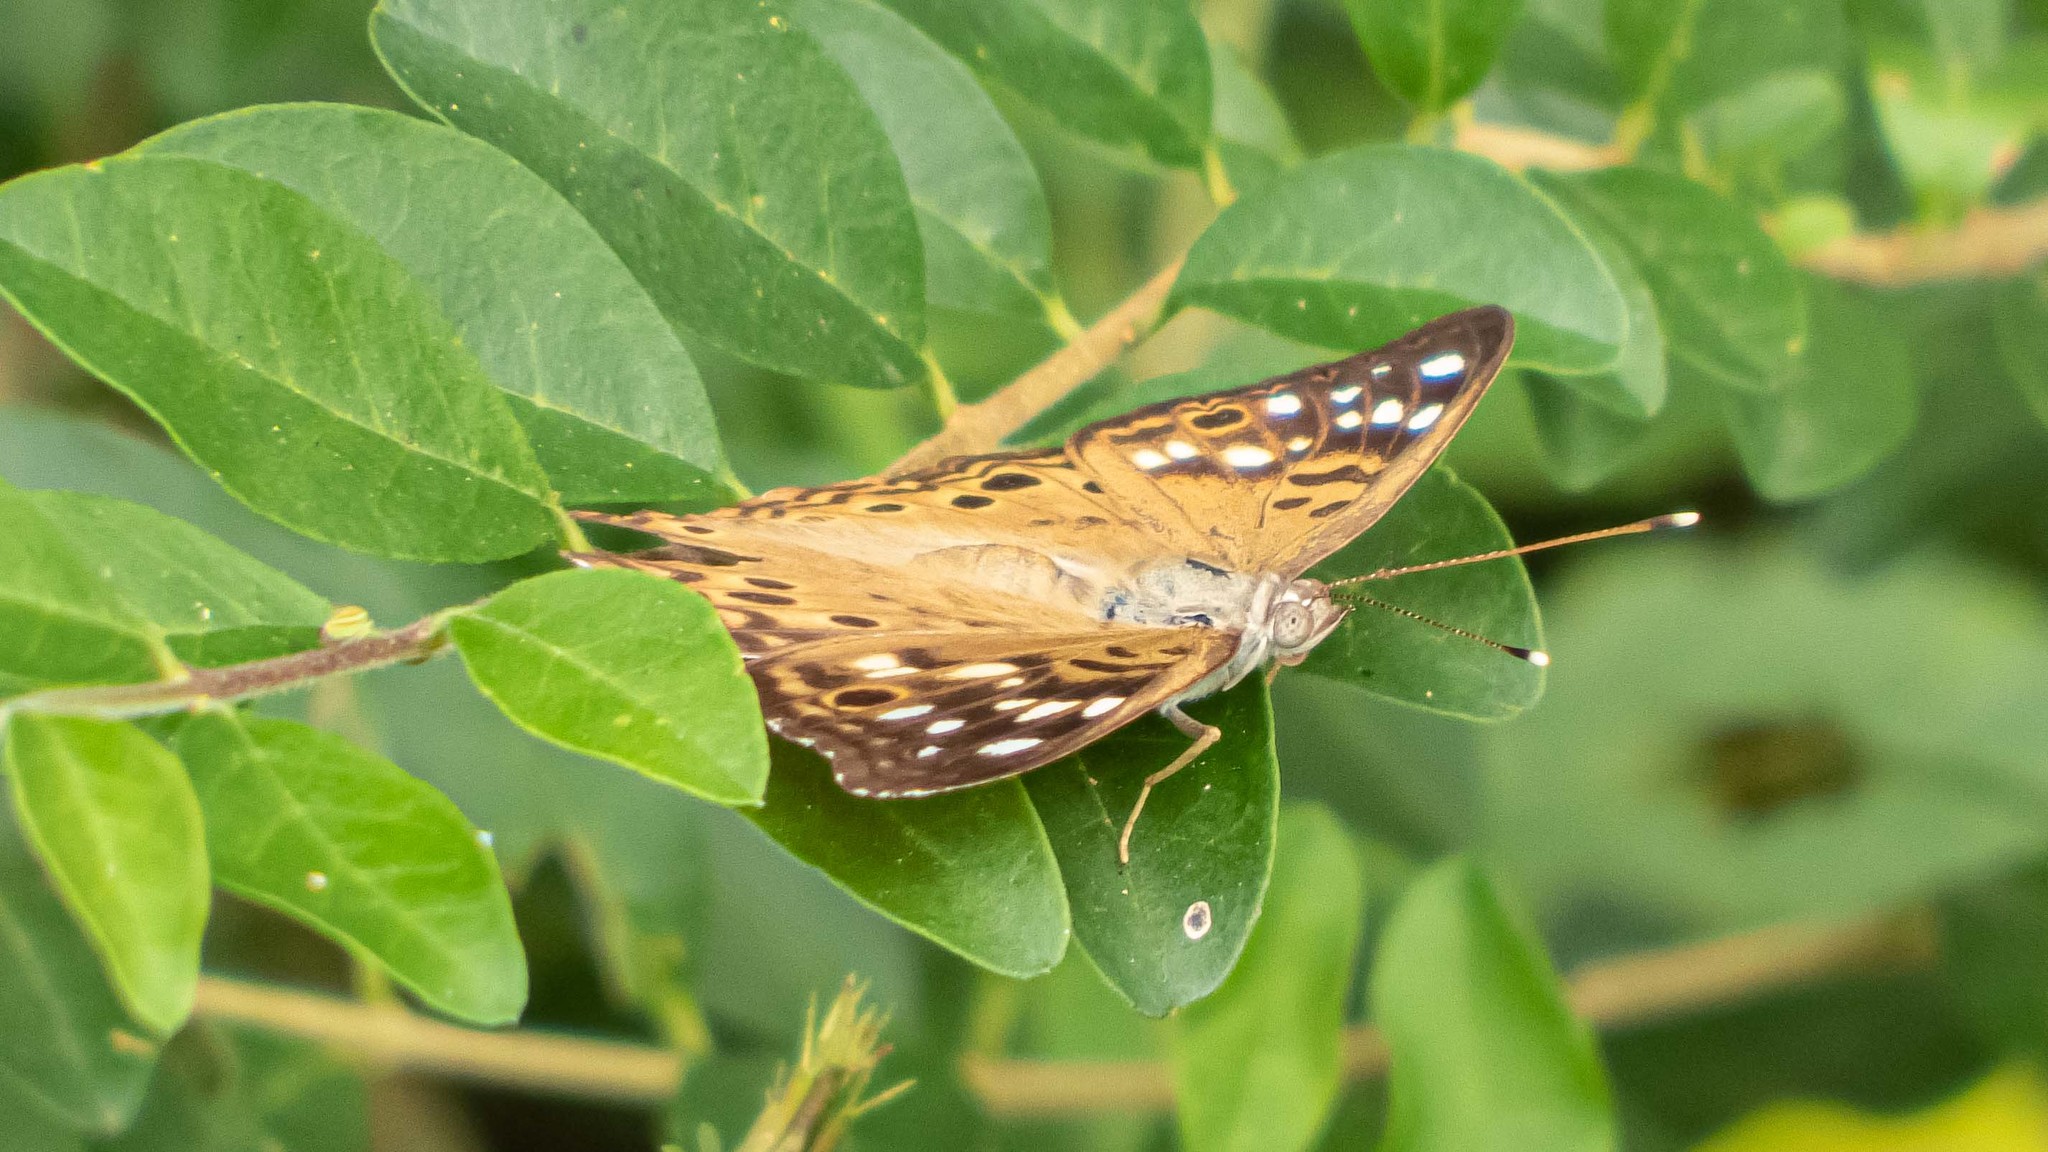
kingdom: Animalia
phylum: Arthropoda
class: Insecta
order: Lepidoptera
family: Nymphalidae
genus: Asterocampa
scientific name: Asterocampa celtis
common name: Hackberry emperor
